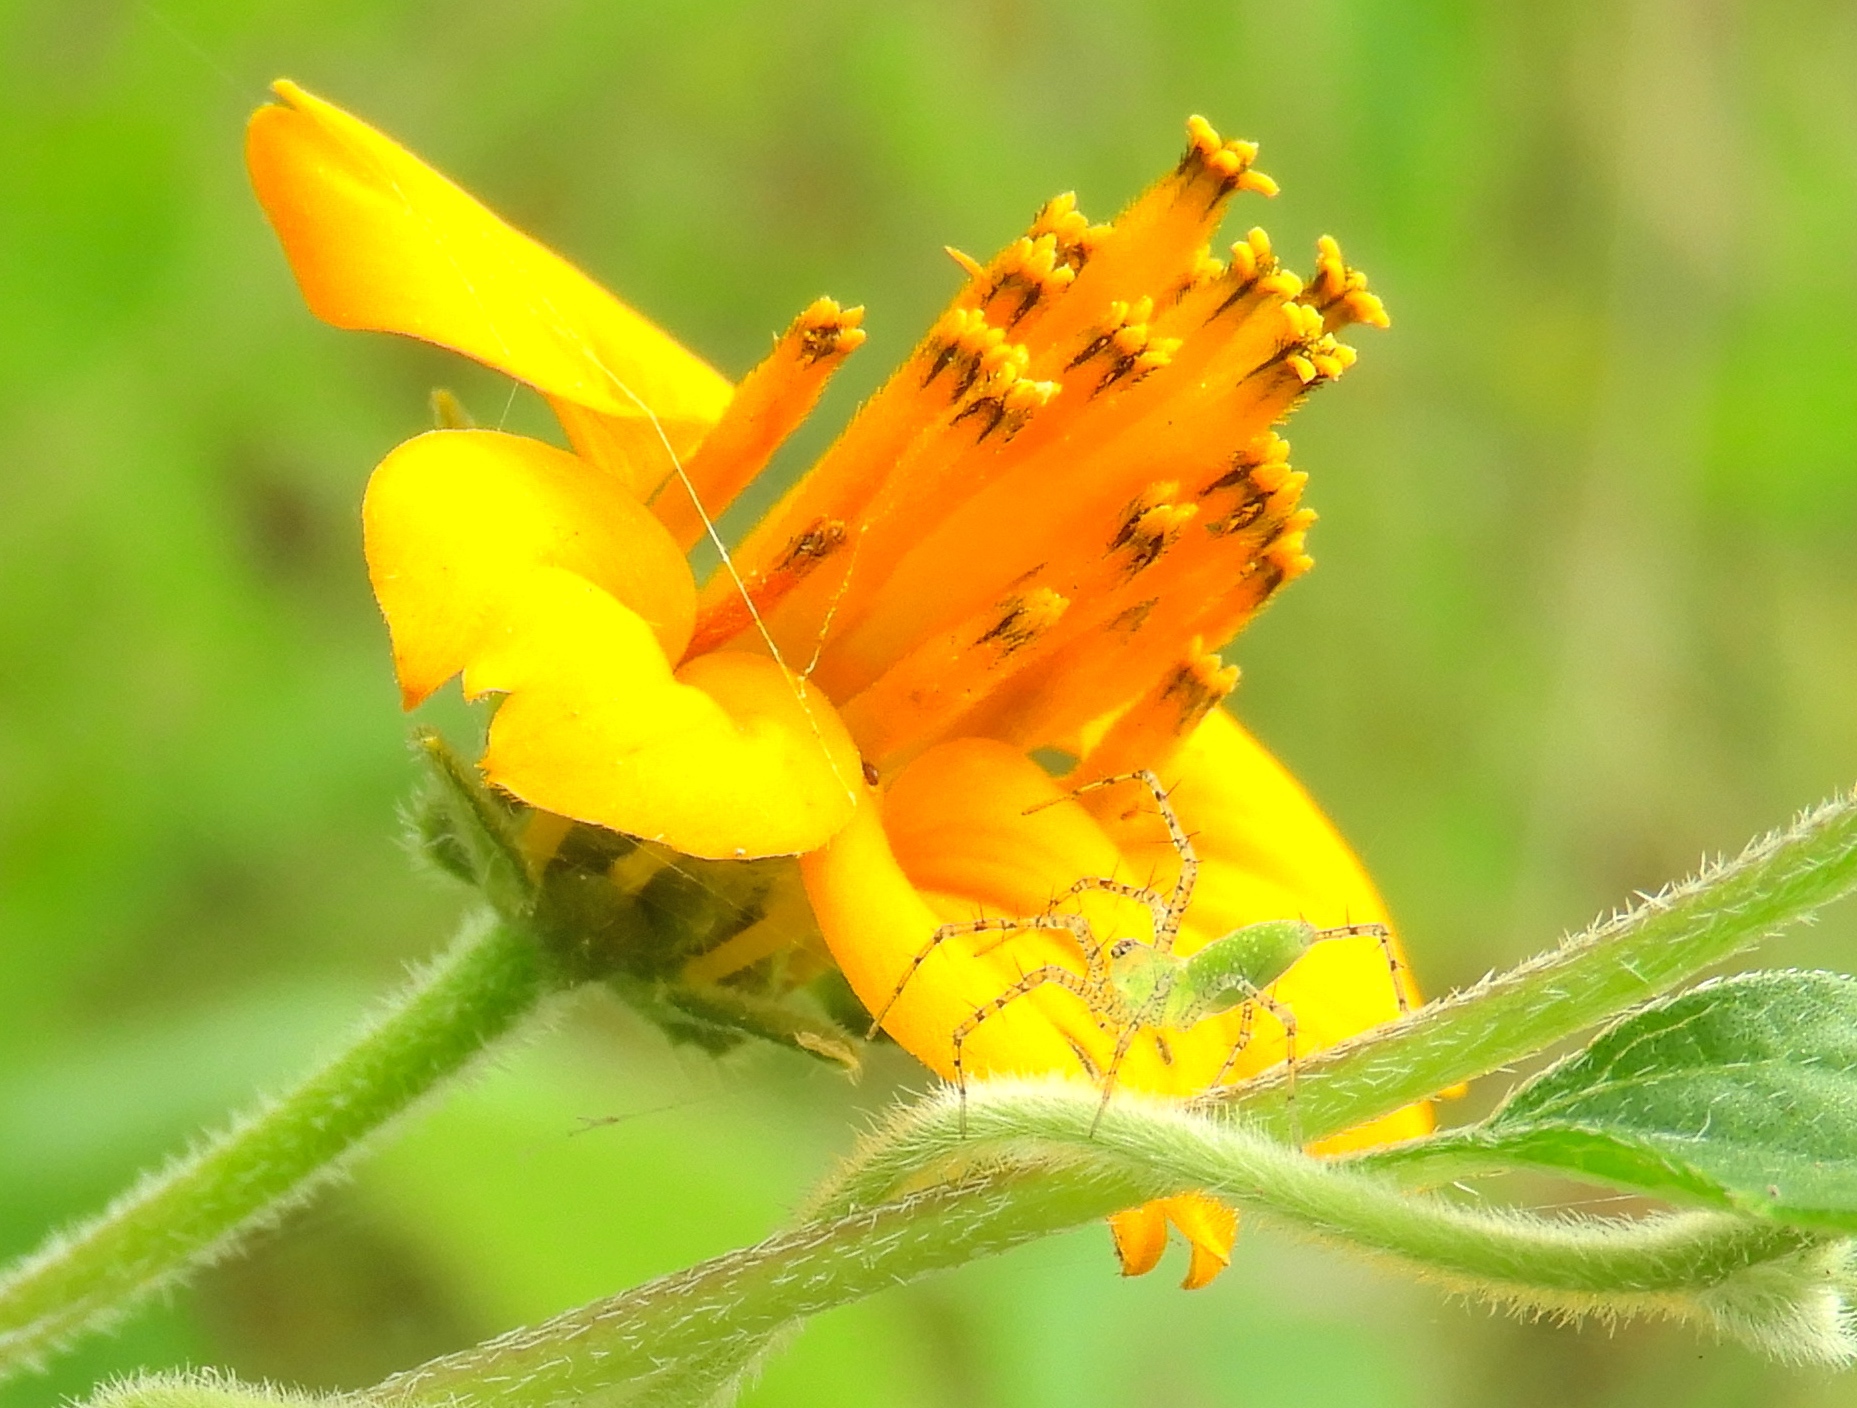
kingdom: Animalia
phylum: Arthropoda
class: Arachnida
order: Araneae
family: Oxyopidae
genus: Peucetia
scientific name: Peucetia
